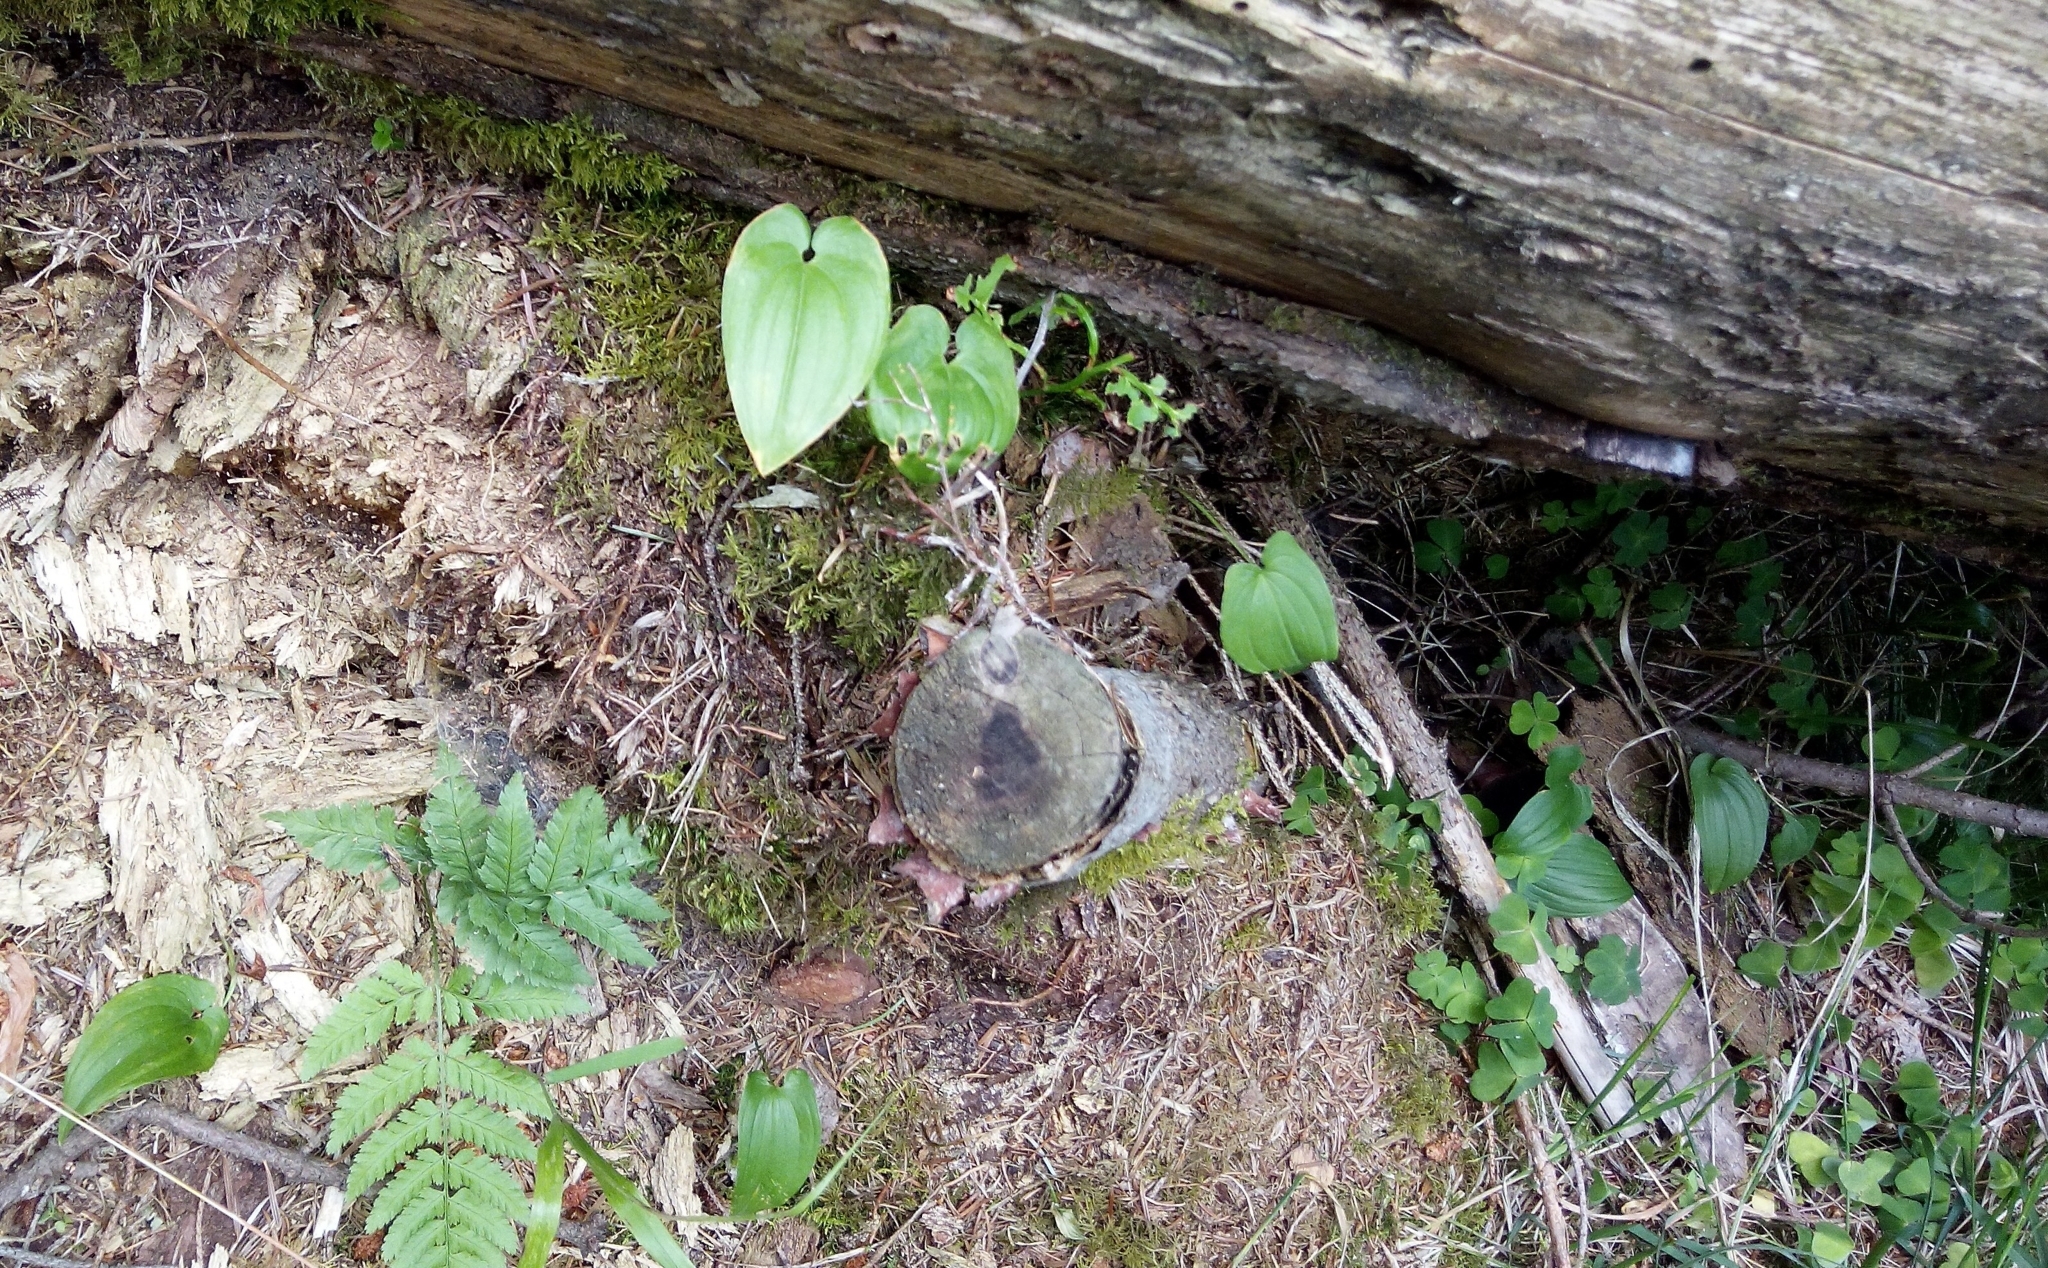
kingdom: Plantae
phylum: Tracheophyta
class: Liliopsida
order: Asparagales
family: Asparagaceae
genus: Maianthemum
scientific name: Maianthemum bifolium
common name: May lily
